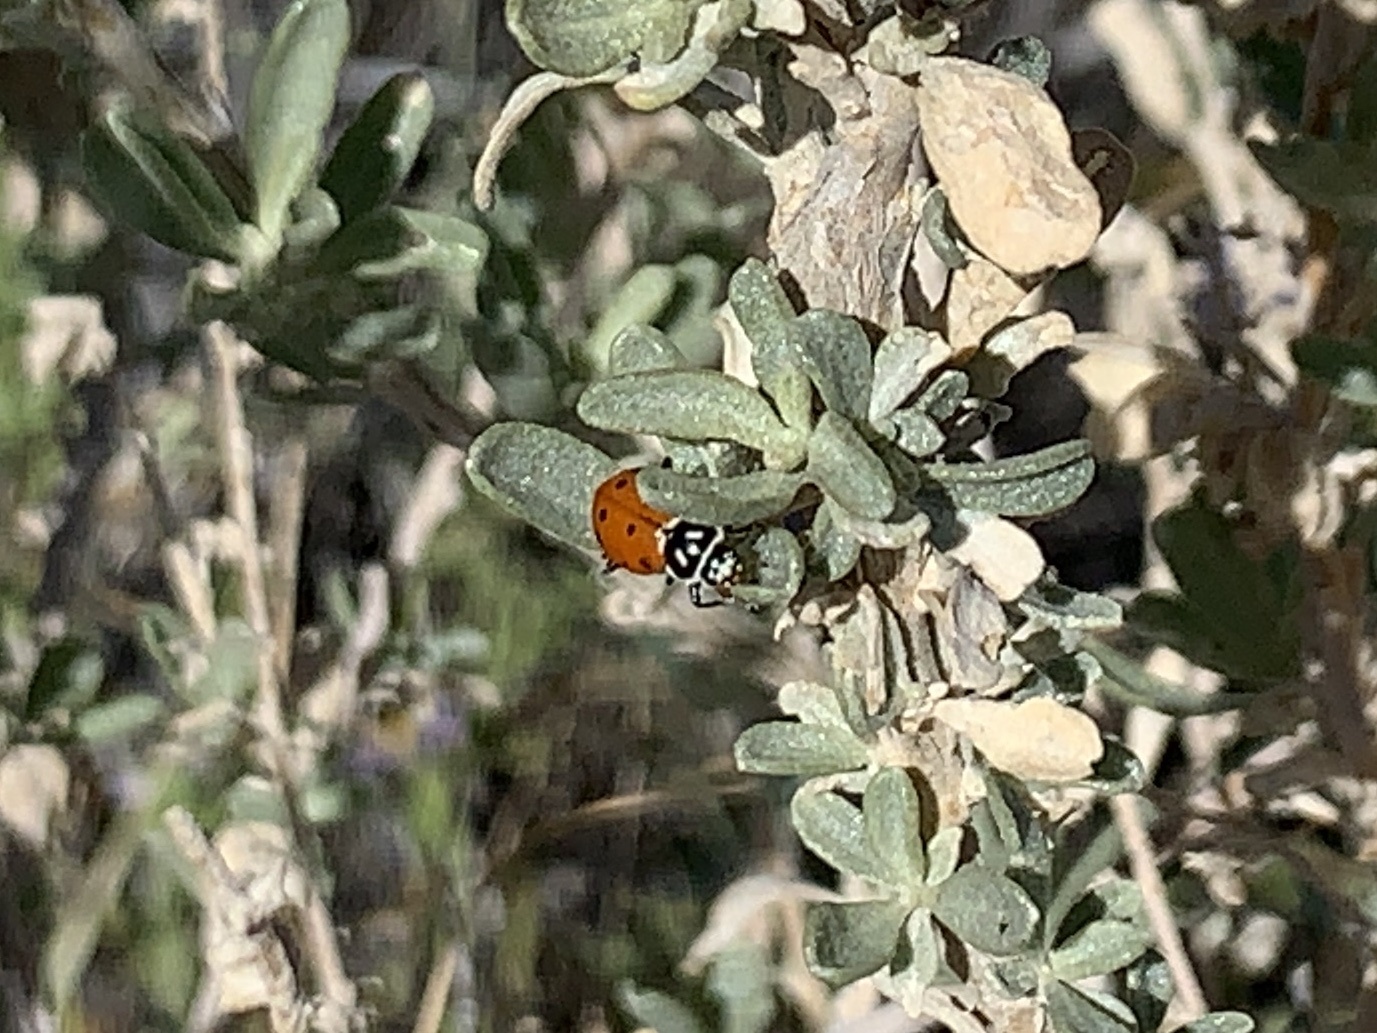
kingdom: Animalia
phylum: Arthropoda
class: Insecta
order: Coleoptera
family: Coccinellidae
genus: Hippodamia
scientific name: Hippodamia convergens
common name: Convergent lady beetle
